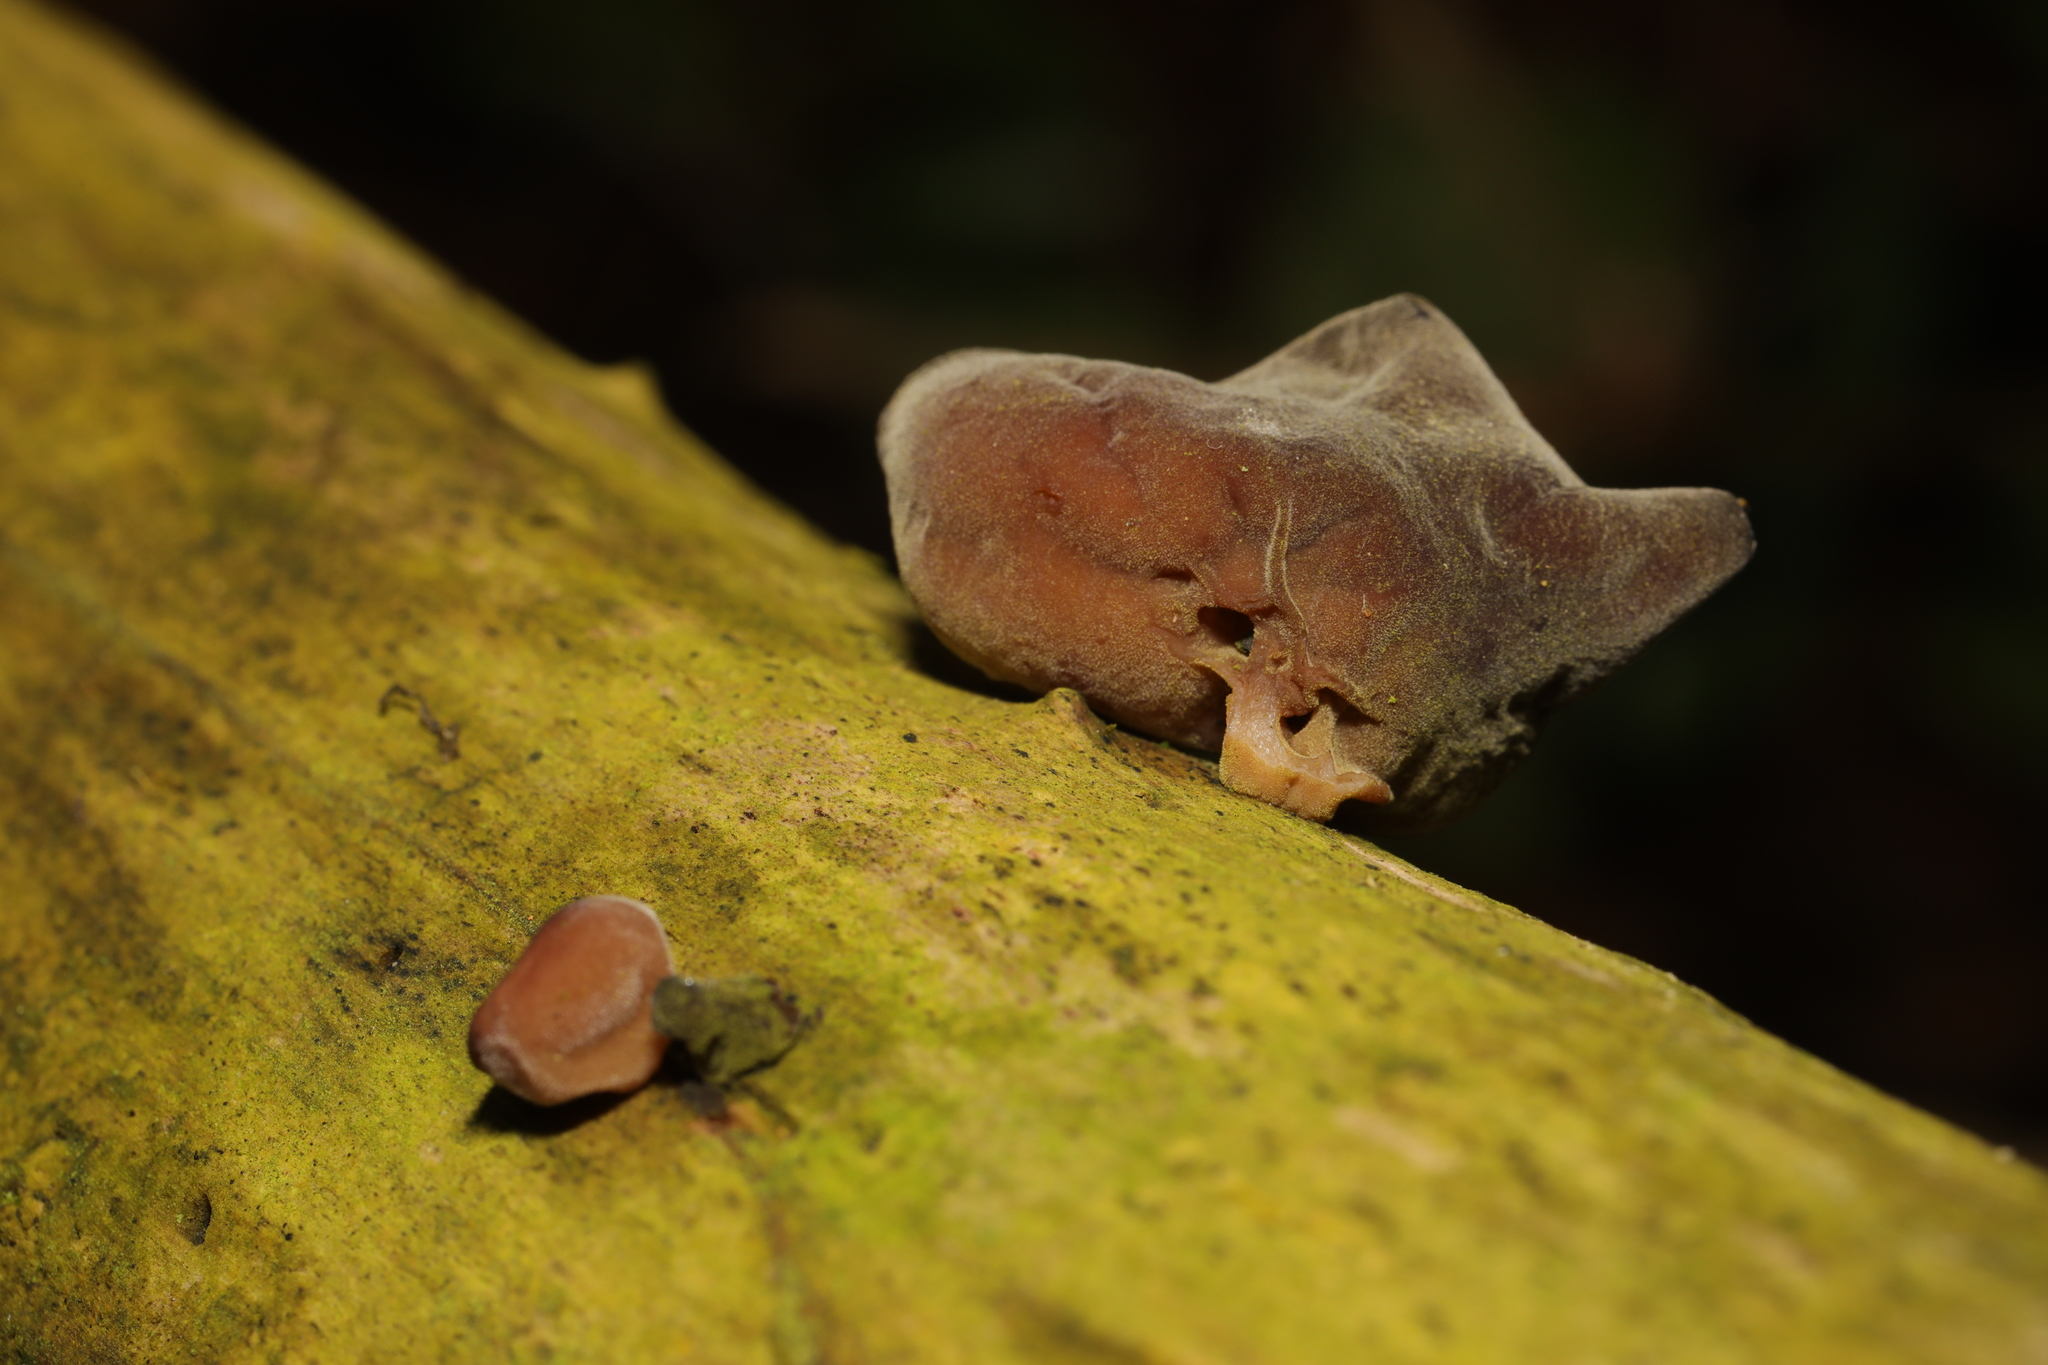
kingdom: Fungi
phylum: Basidiomycota
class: Agaricomycetes
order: Auriculariales
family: Auriculariaceae
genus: Auricularia
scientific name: Auricularia auricula-judae
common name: Jelly ear
